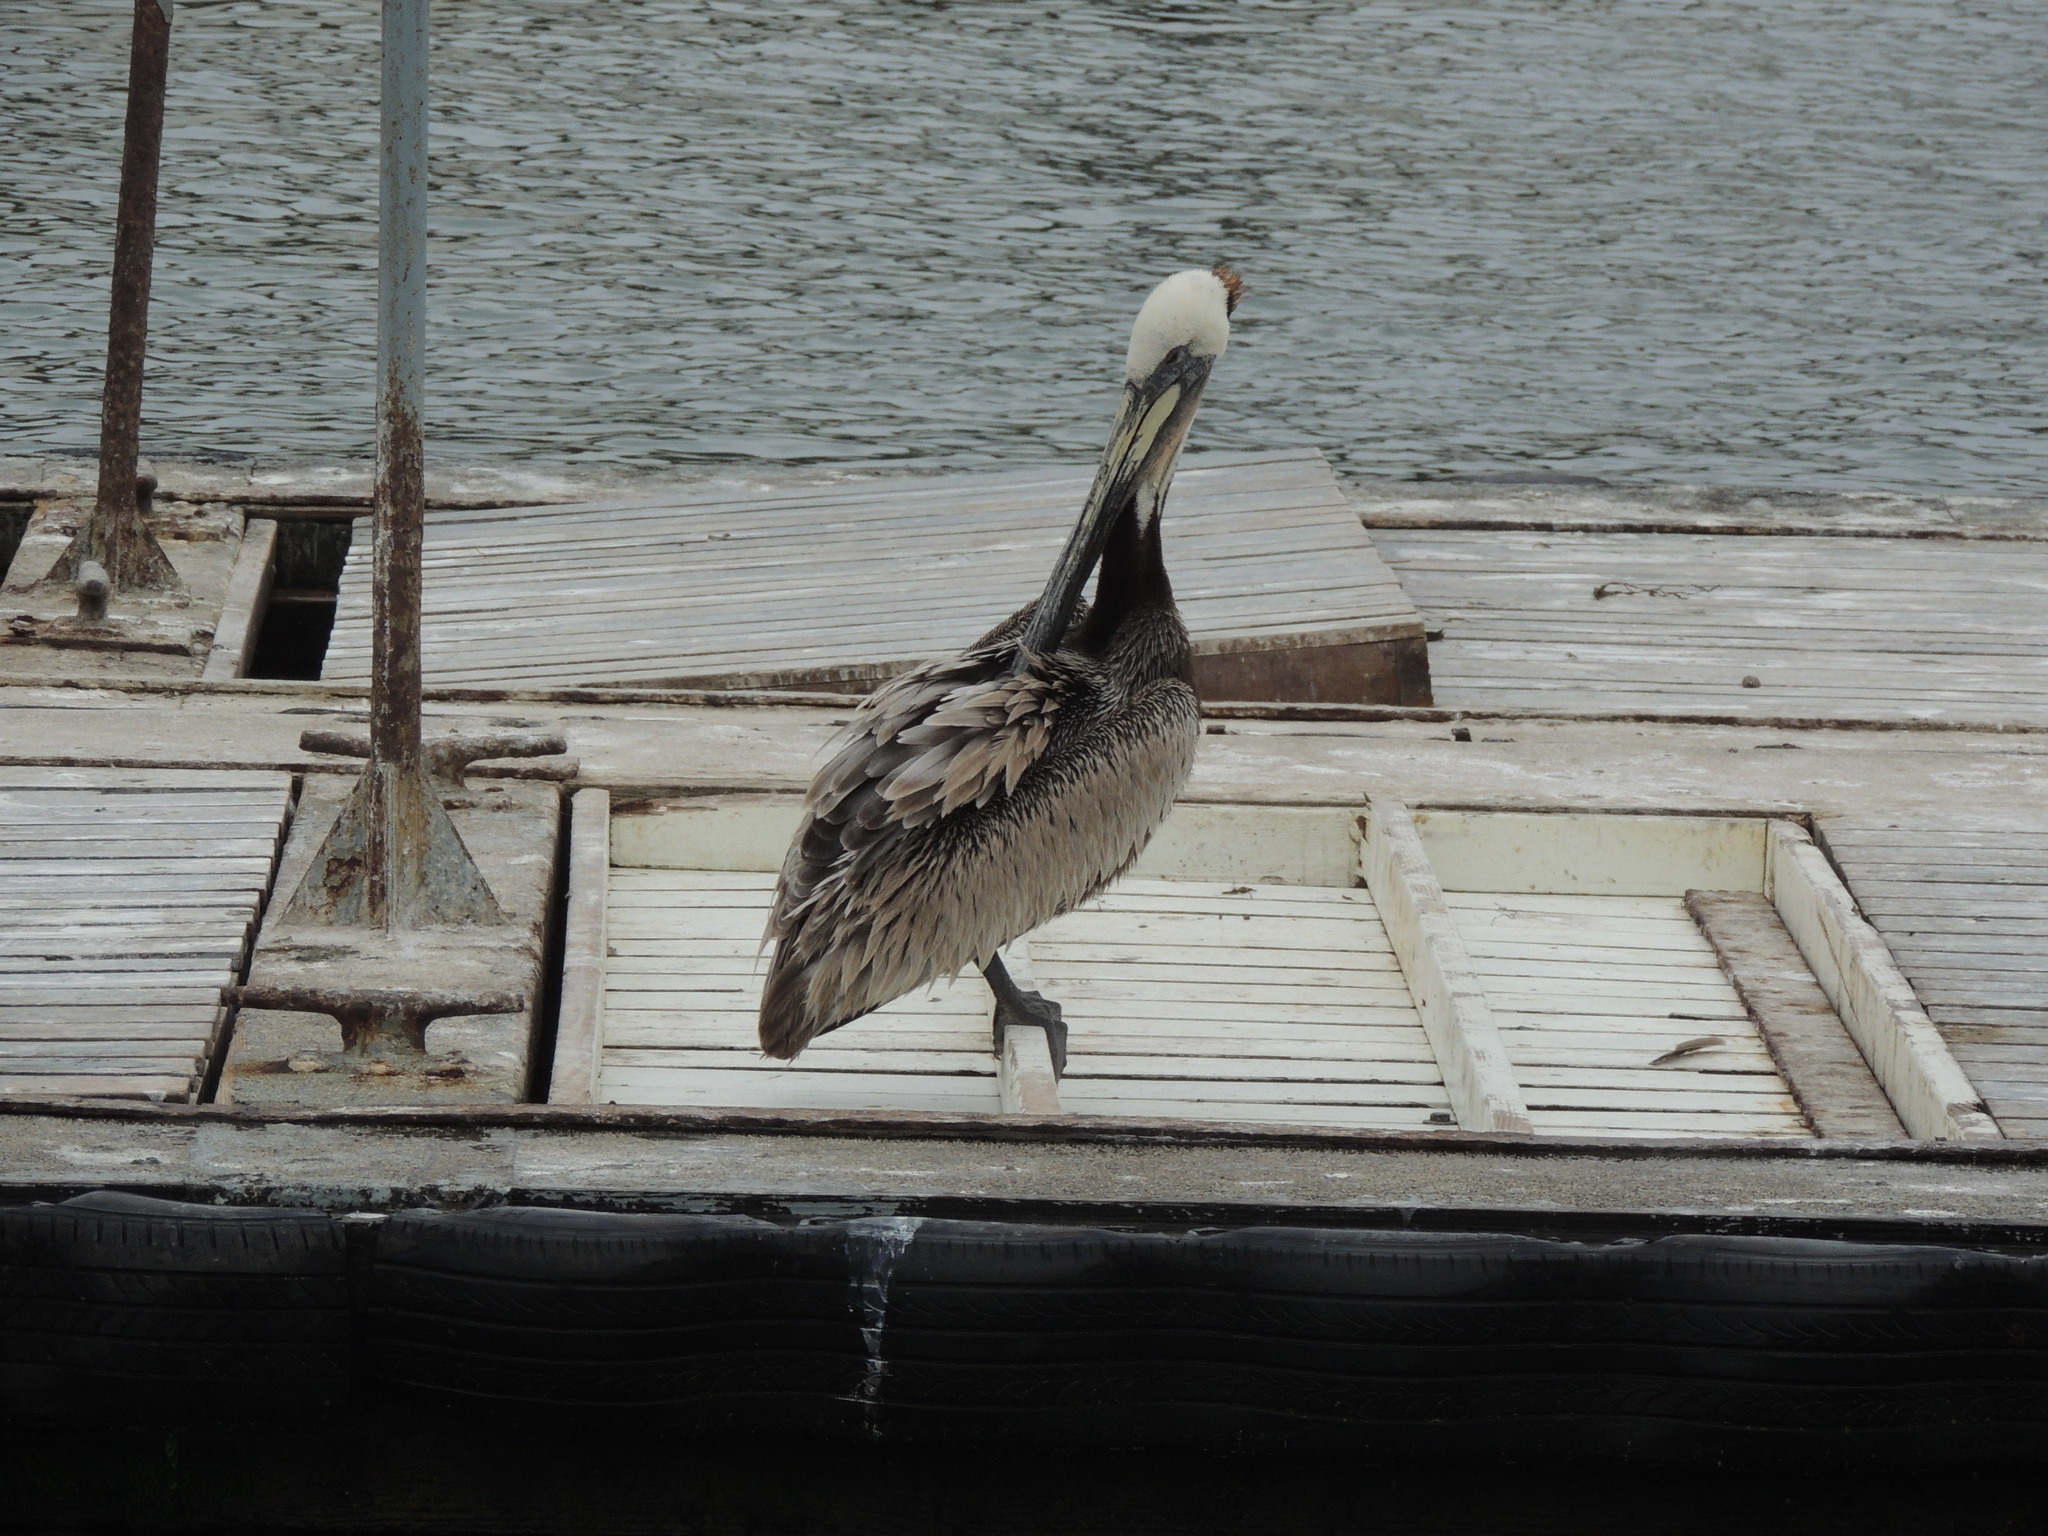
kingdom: Animalia
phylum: Chordata
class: Aves
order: Pelecaniformes
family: Pelecanidae
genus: Pelecanus
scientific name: Pelecanus occidentalis
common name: Brown pelican
